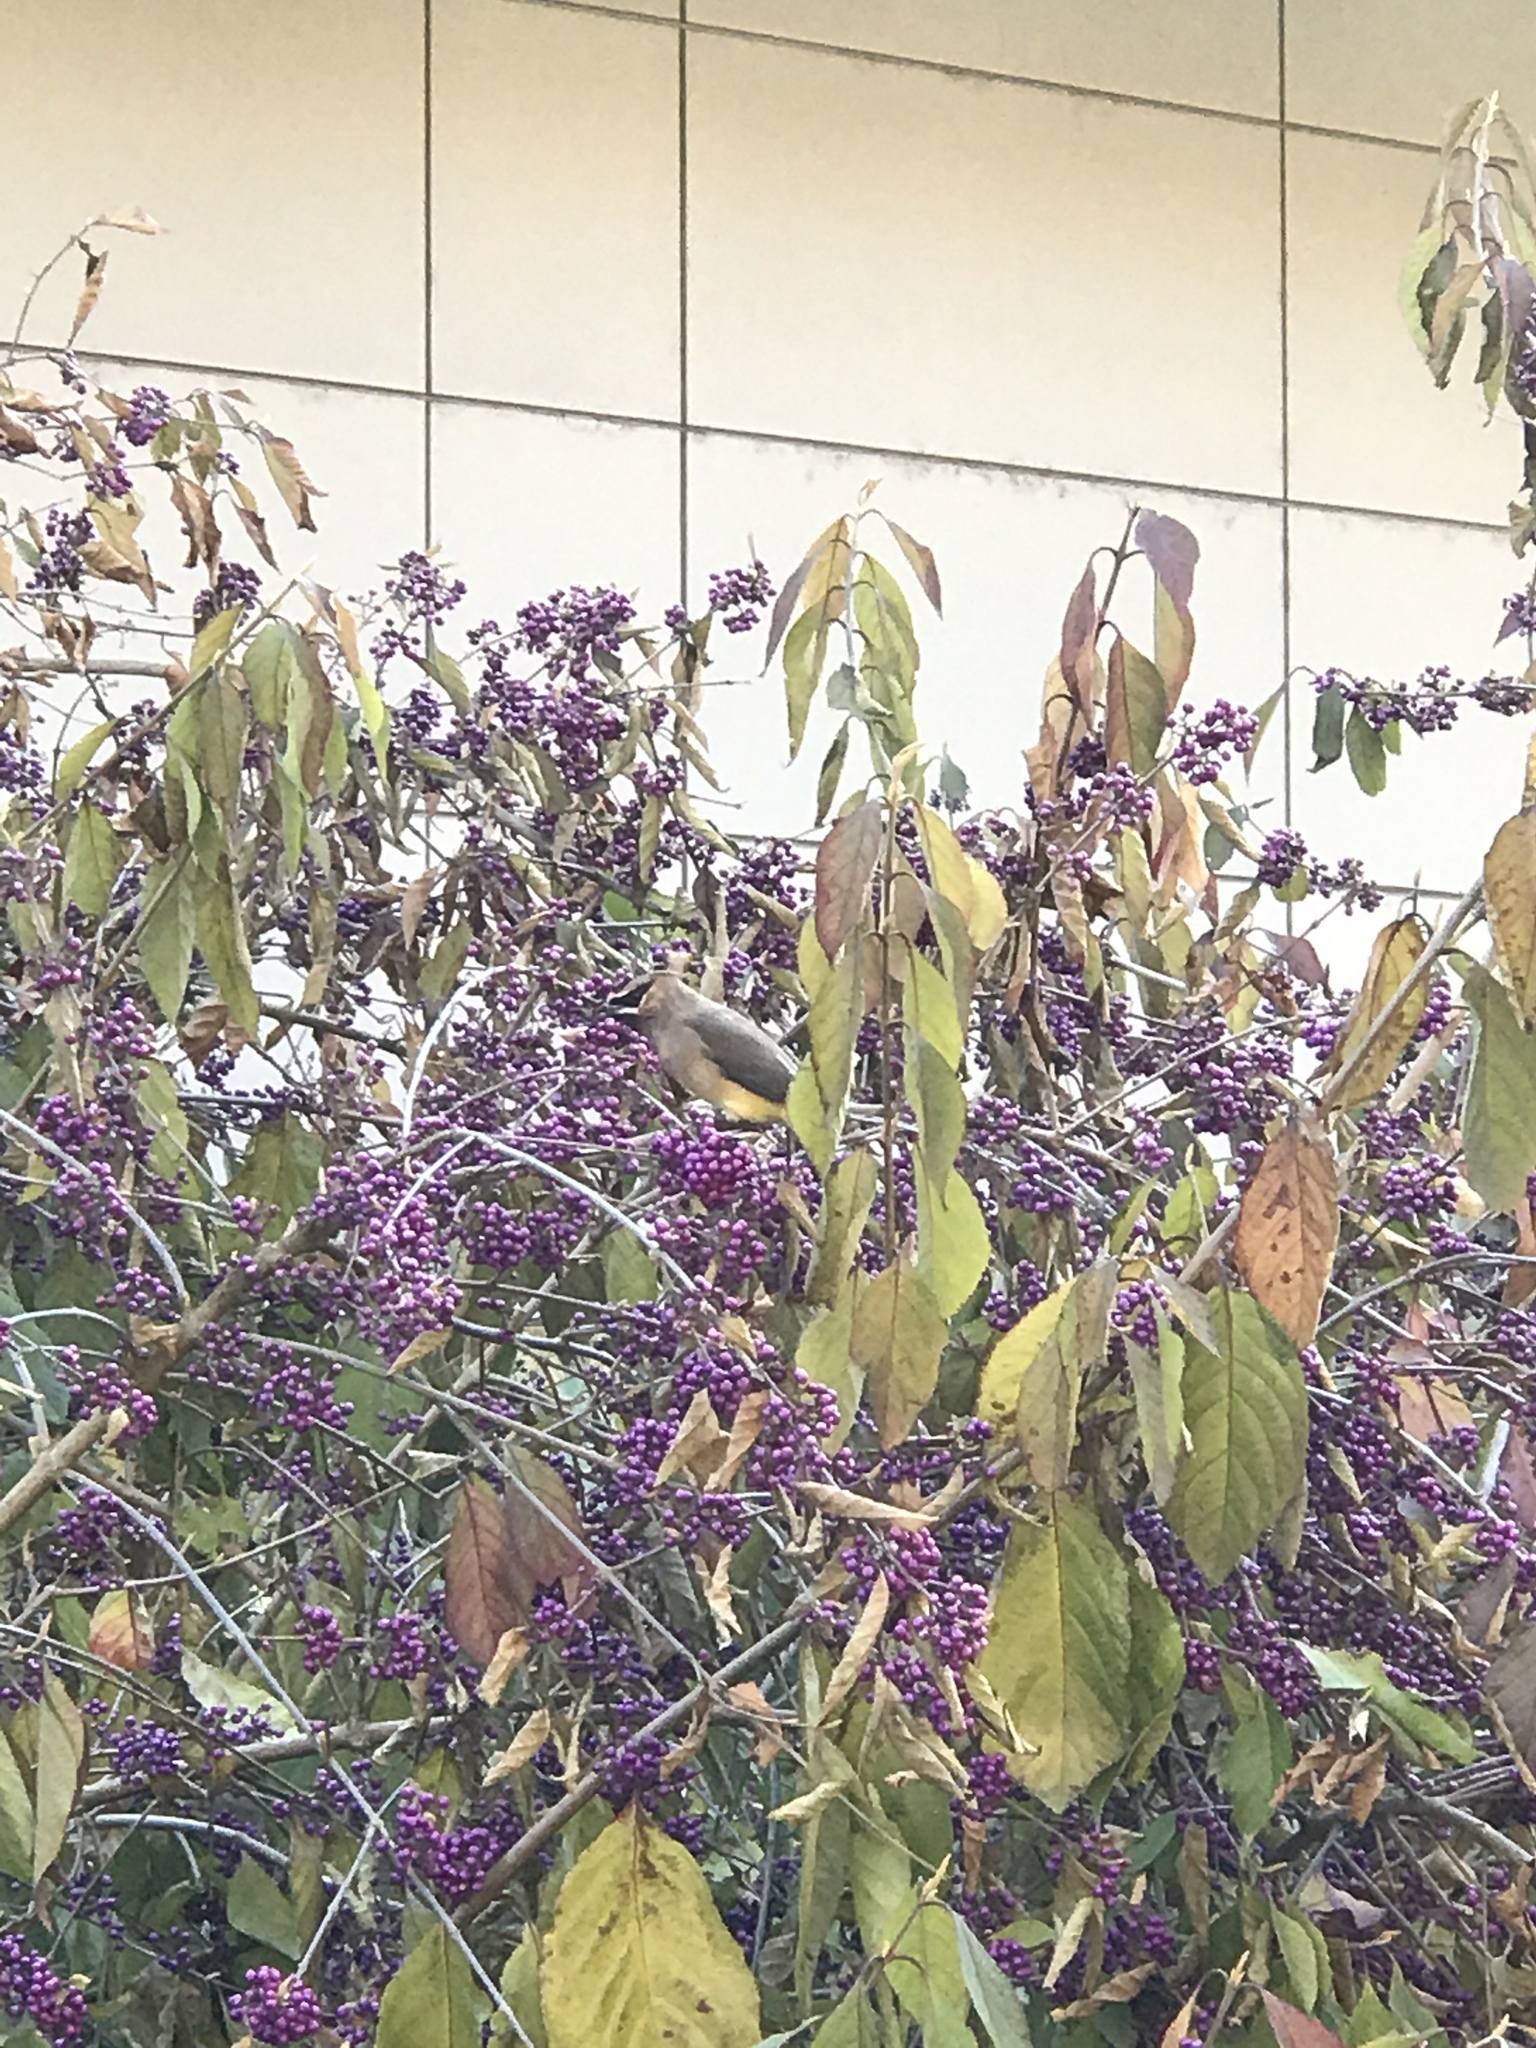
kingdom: Animalia
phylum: Chordata
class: Aves
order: Passeriformes
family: Bombycillidae
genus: Bombycilla
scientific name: Bombycilla cedrorum
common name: Cedar waxwing
